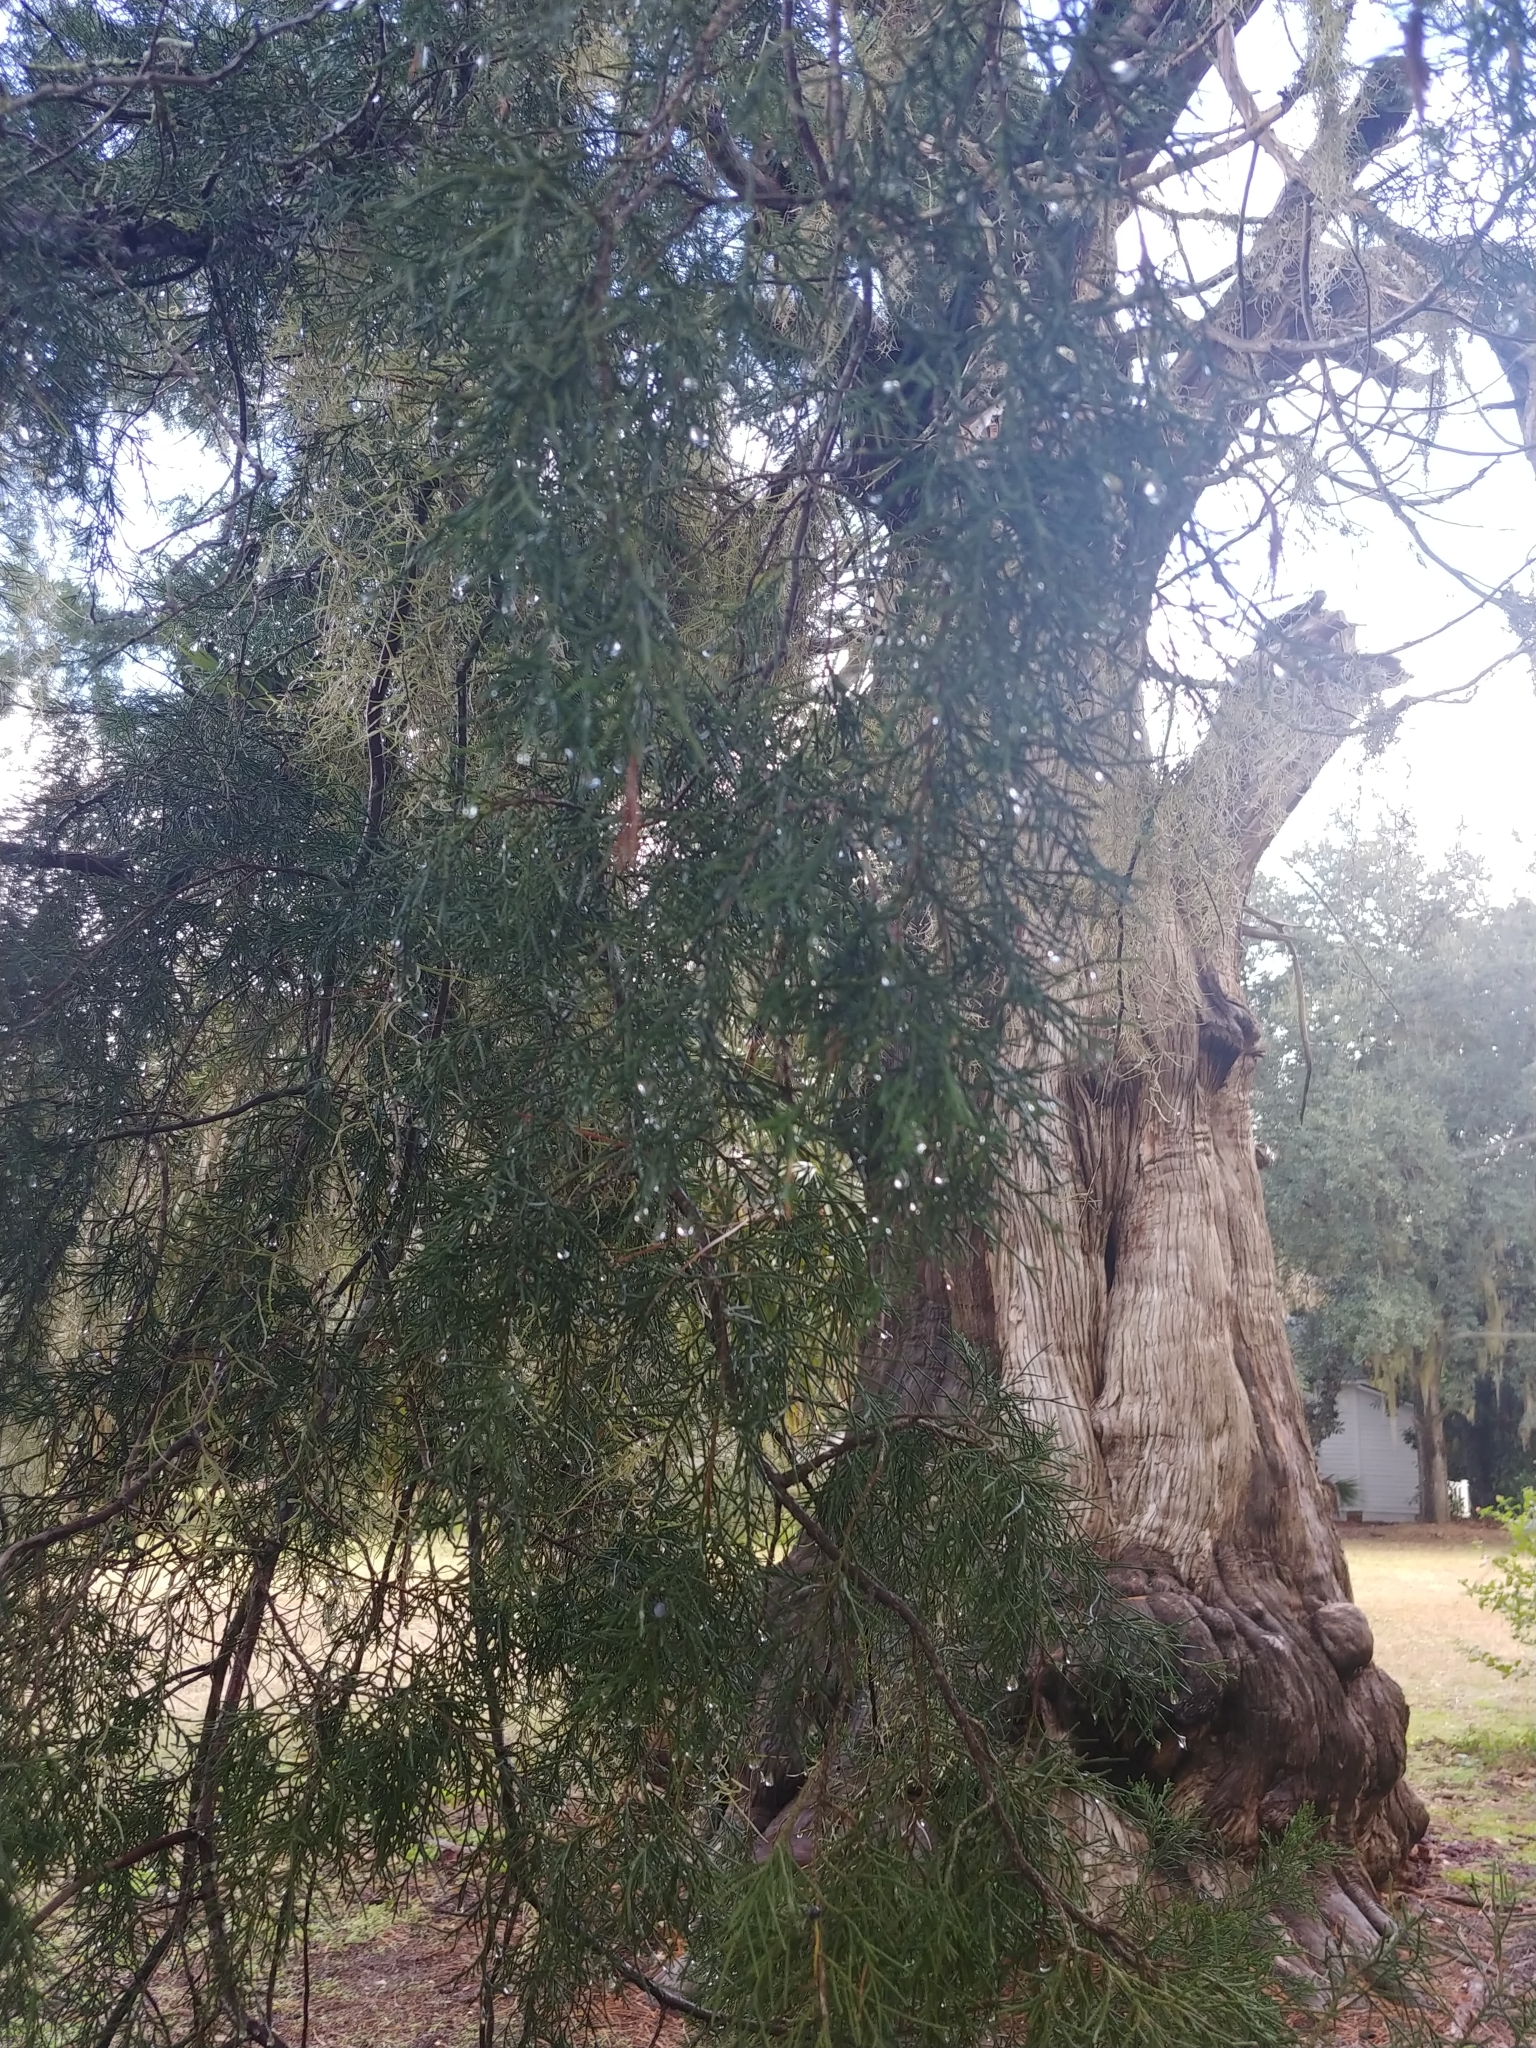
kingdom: Plantae
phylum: Tracheophyta
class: Pinopsida
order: Pinales
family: Cupressaceae
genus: Juniperus
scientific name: Juniperus virginiana
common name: Red juniper
